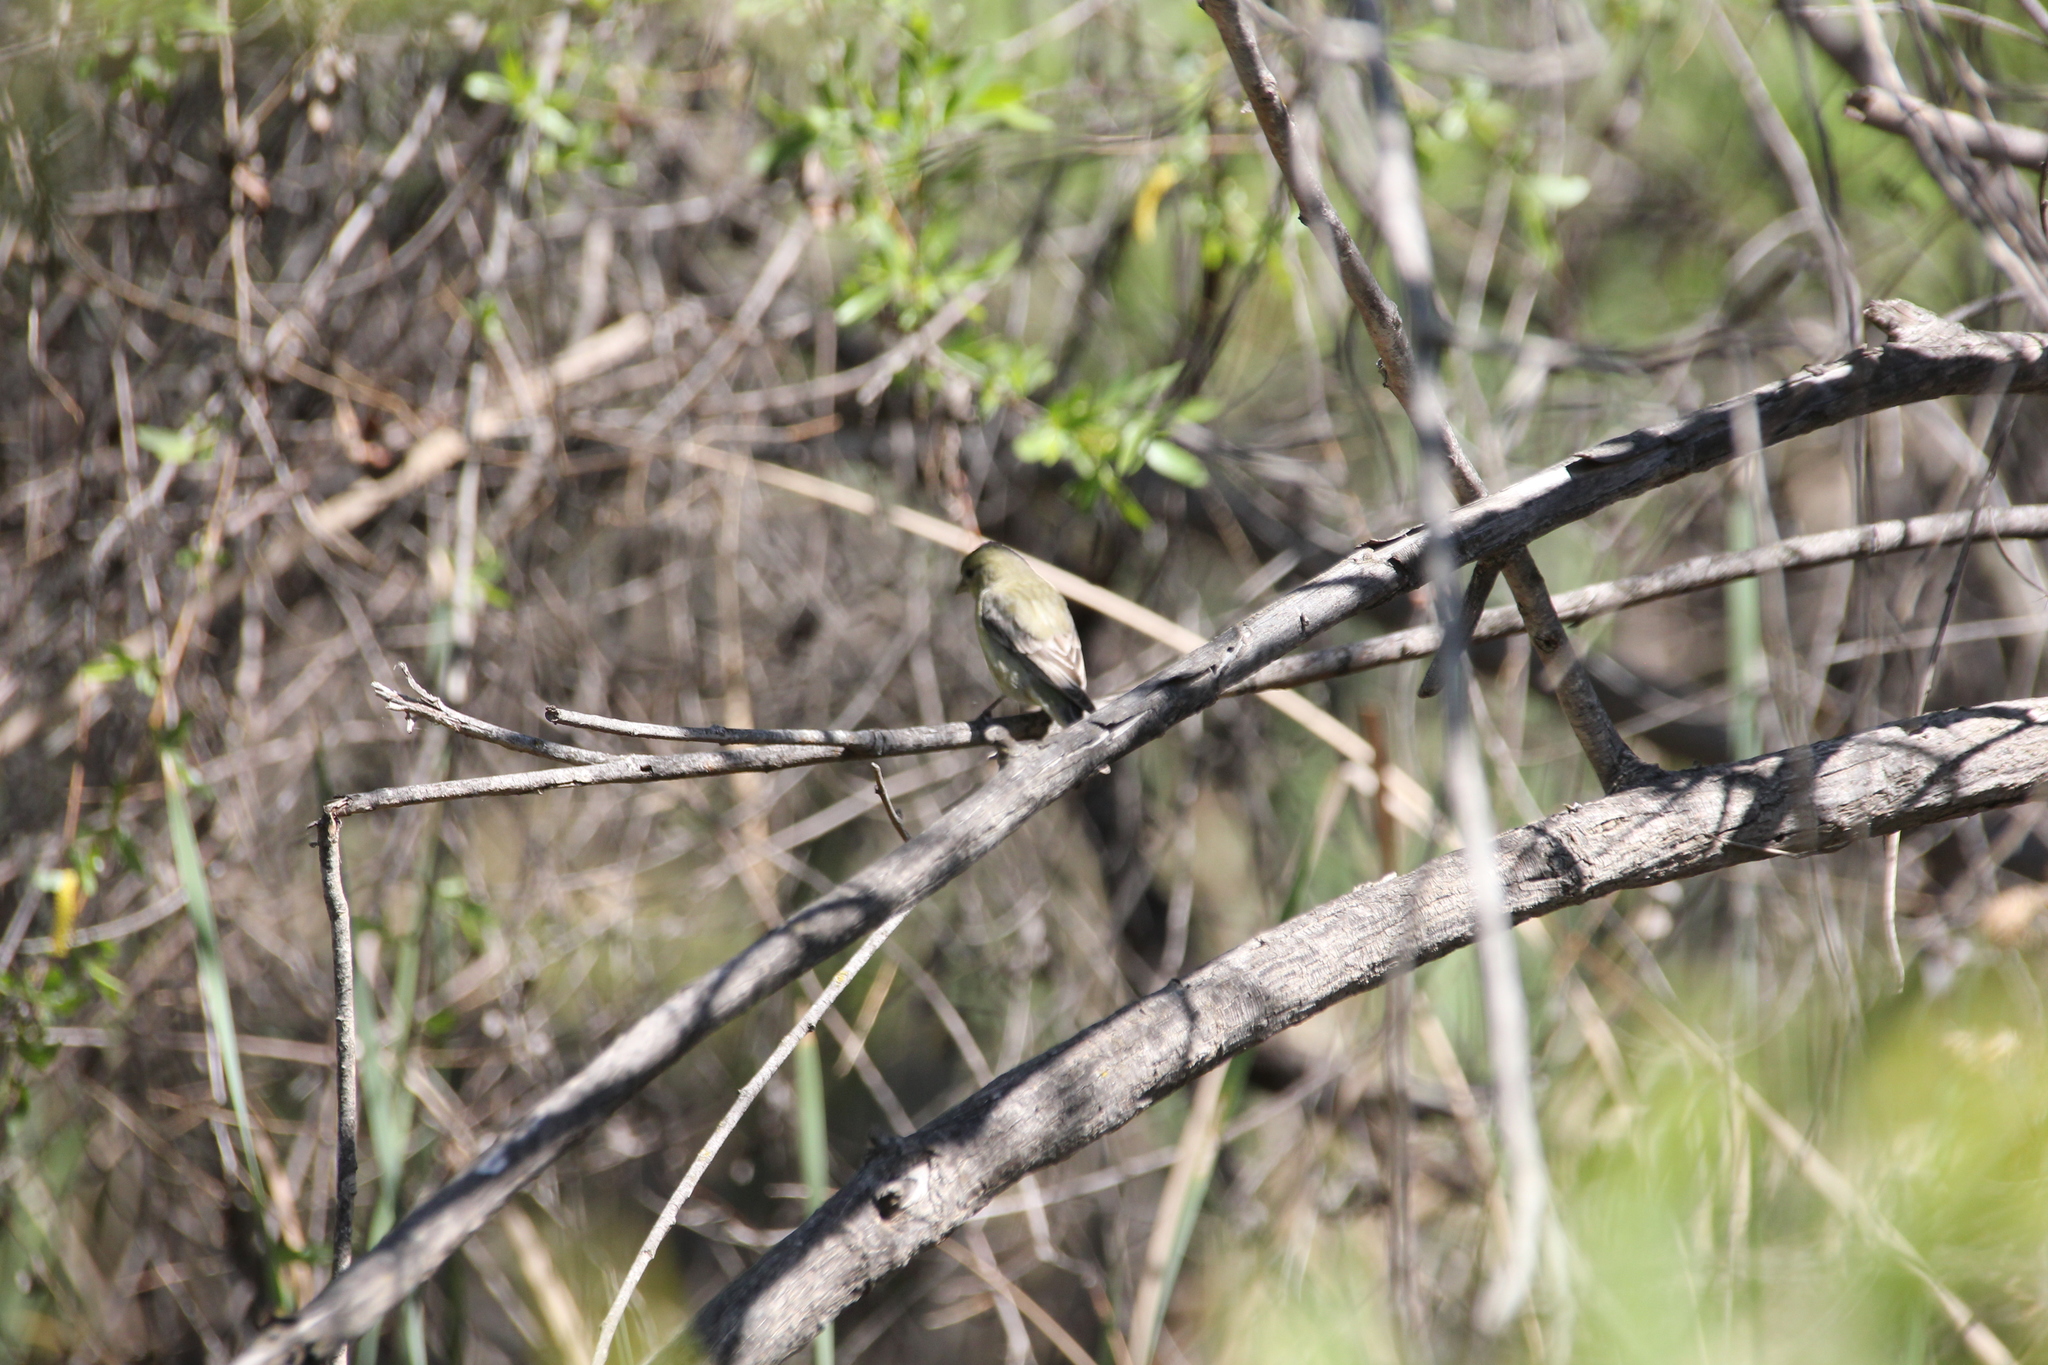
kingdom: Animalia
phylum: Chordata
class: Aves
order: Passeriformes
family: Fringillidae
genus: Spinus
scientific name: Spinus psaltria
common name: Lesser goldfinch
